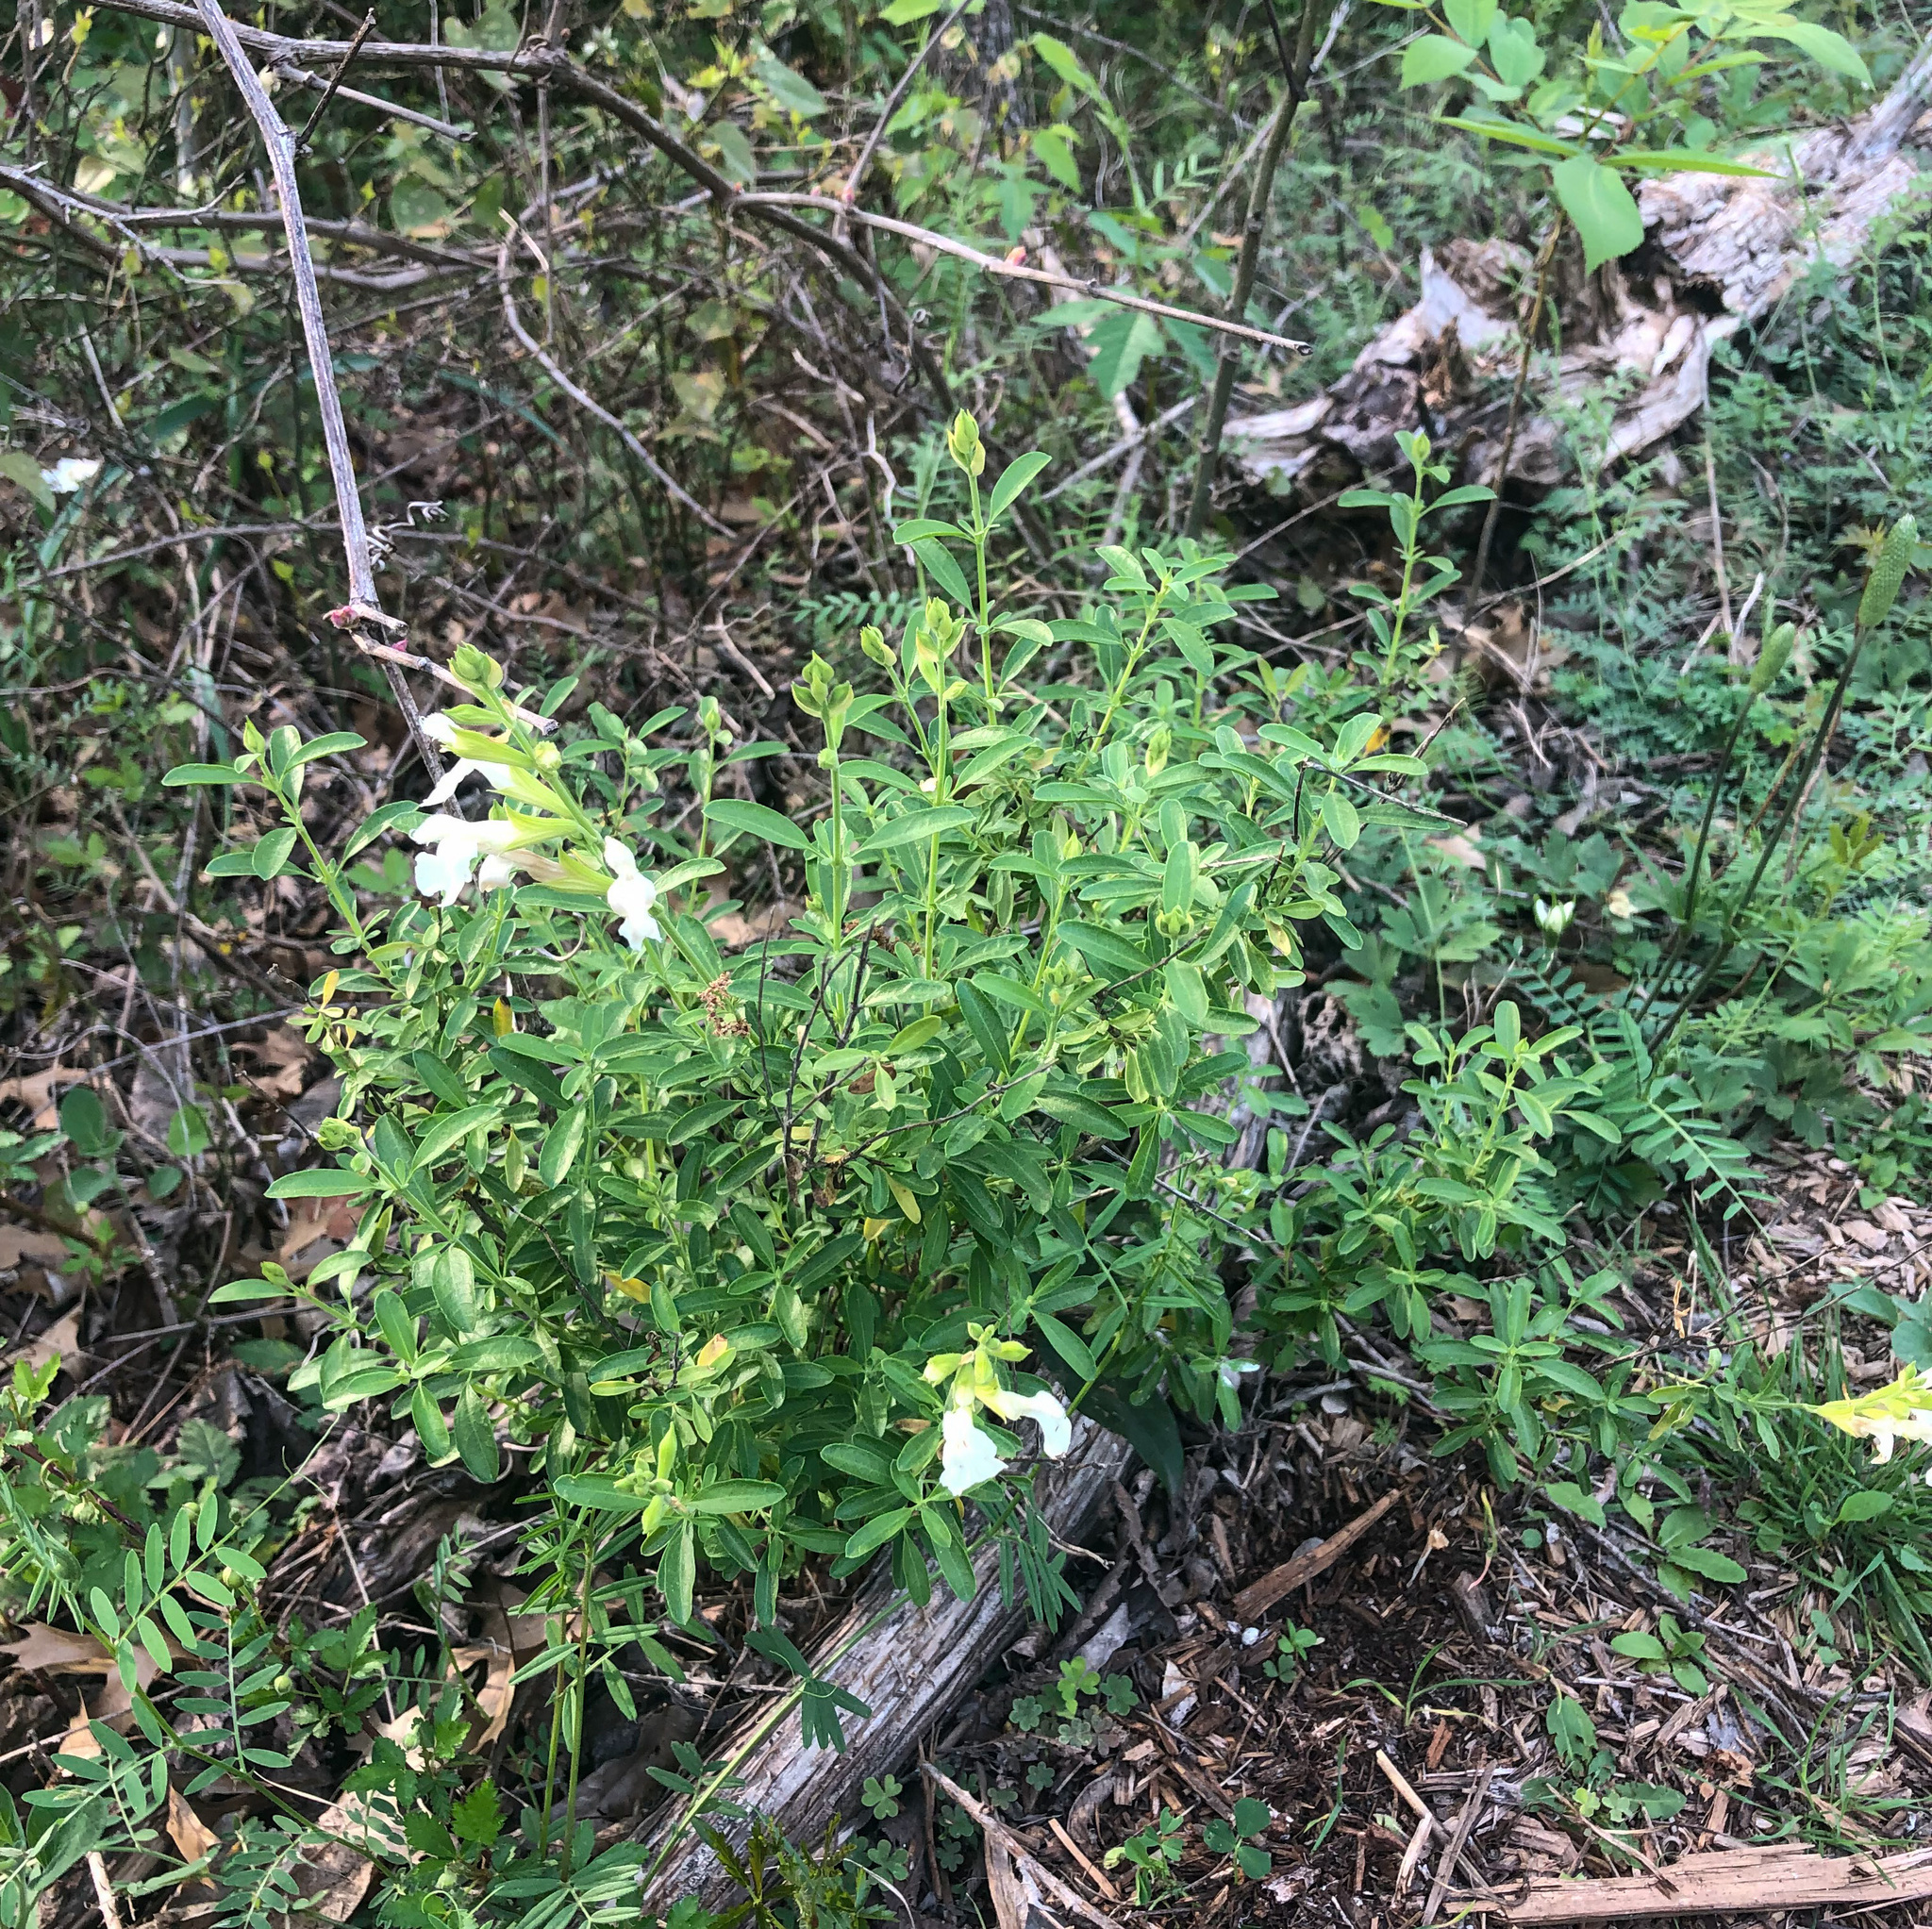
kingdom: Plantae
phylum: Tracheophyta
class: Magnoliopsida
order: Lamiales
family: Lamiaceae
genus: Salvia
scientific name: Salvia greggii
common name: Autumn sage
